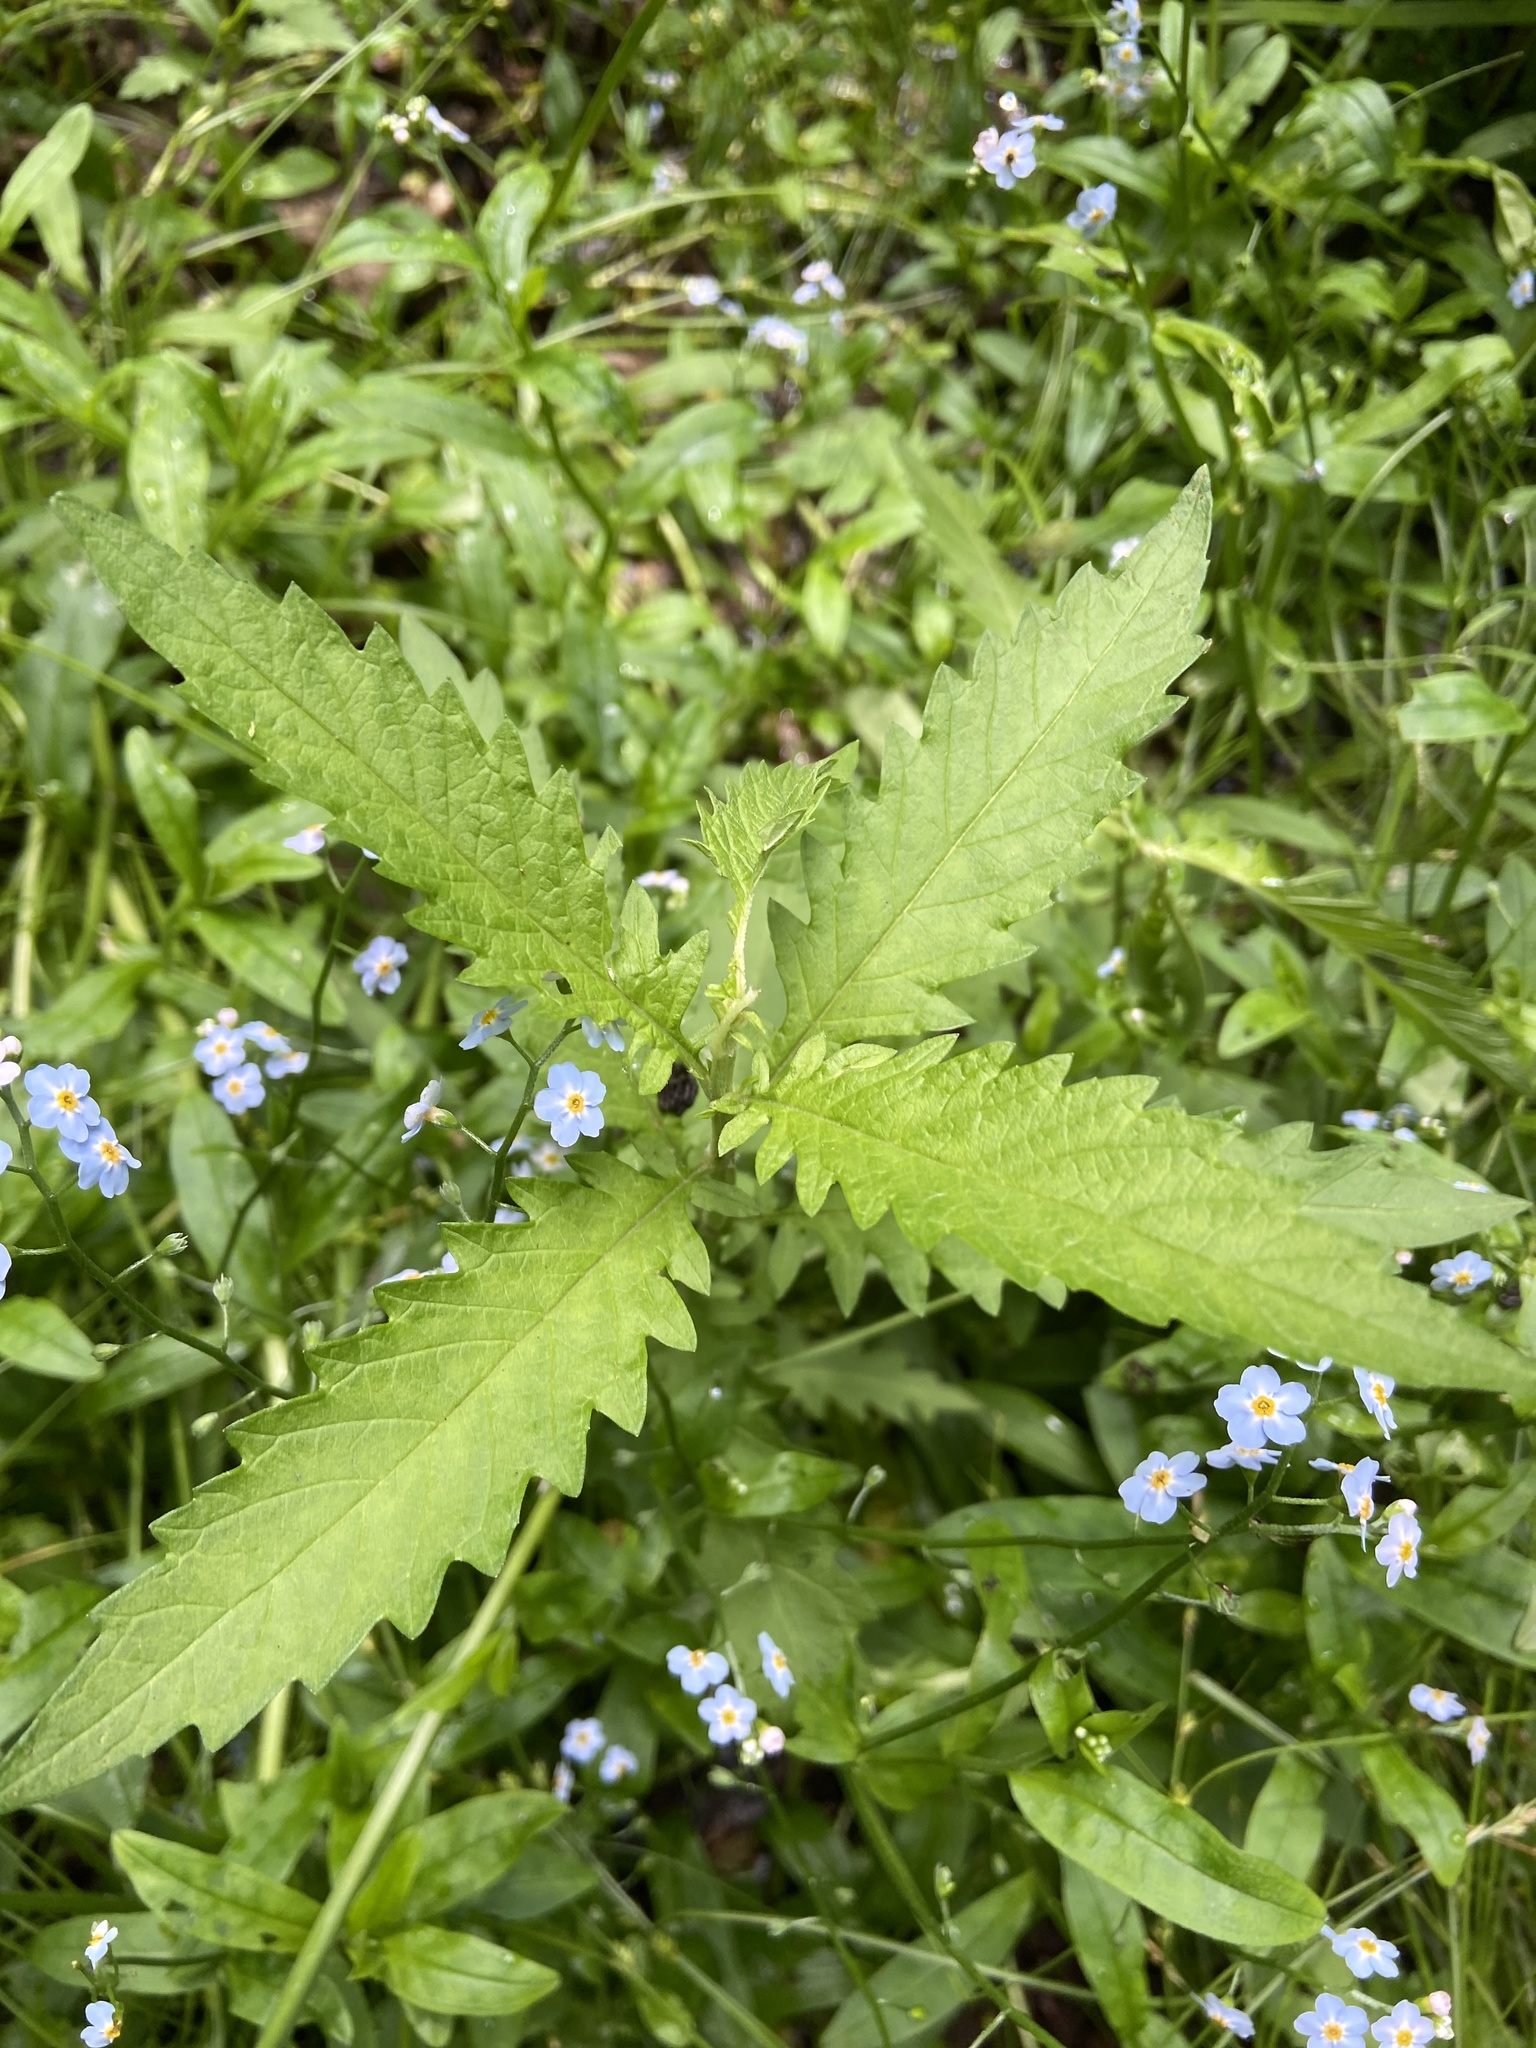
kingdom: Plantae
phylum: Tracheophyta
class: Magnoliopsida
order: Lamiales
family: Lamiaceae
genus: Lycopus
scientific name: Lycopus europaeus
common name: European bugleweed
